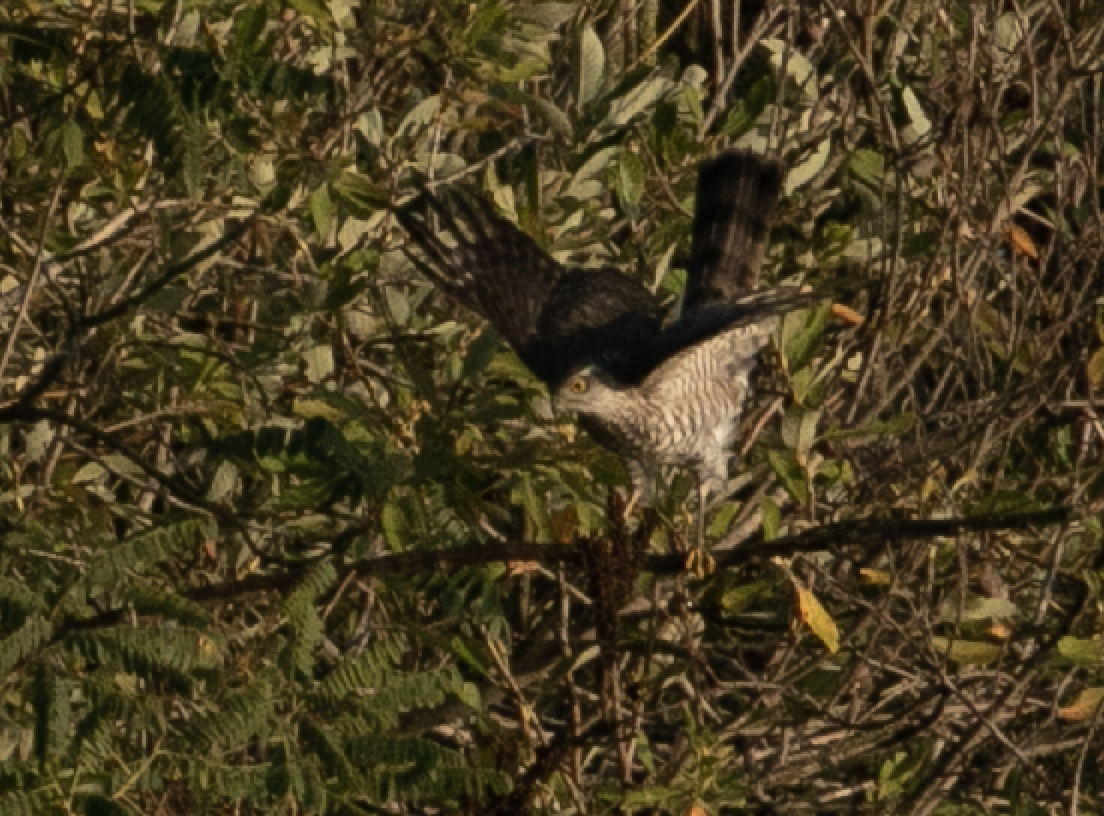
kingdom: Animalia
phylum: Chordata
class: Aves
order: Accipitriformes
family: Accipitridae
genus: Accipiter
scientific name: Accipiter nisus
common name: Eurasian sparrowhawk
